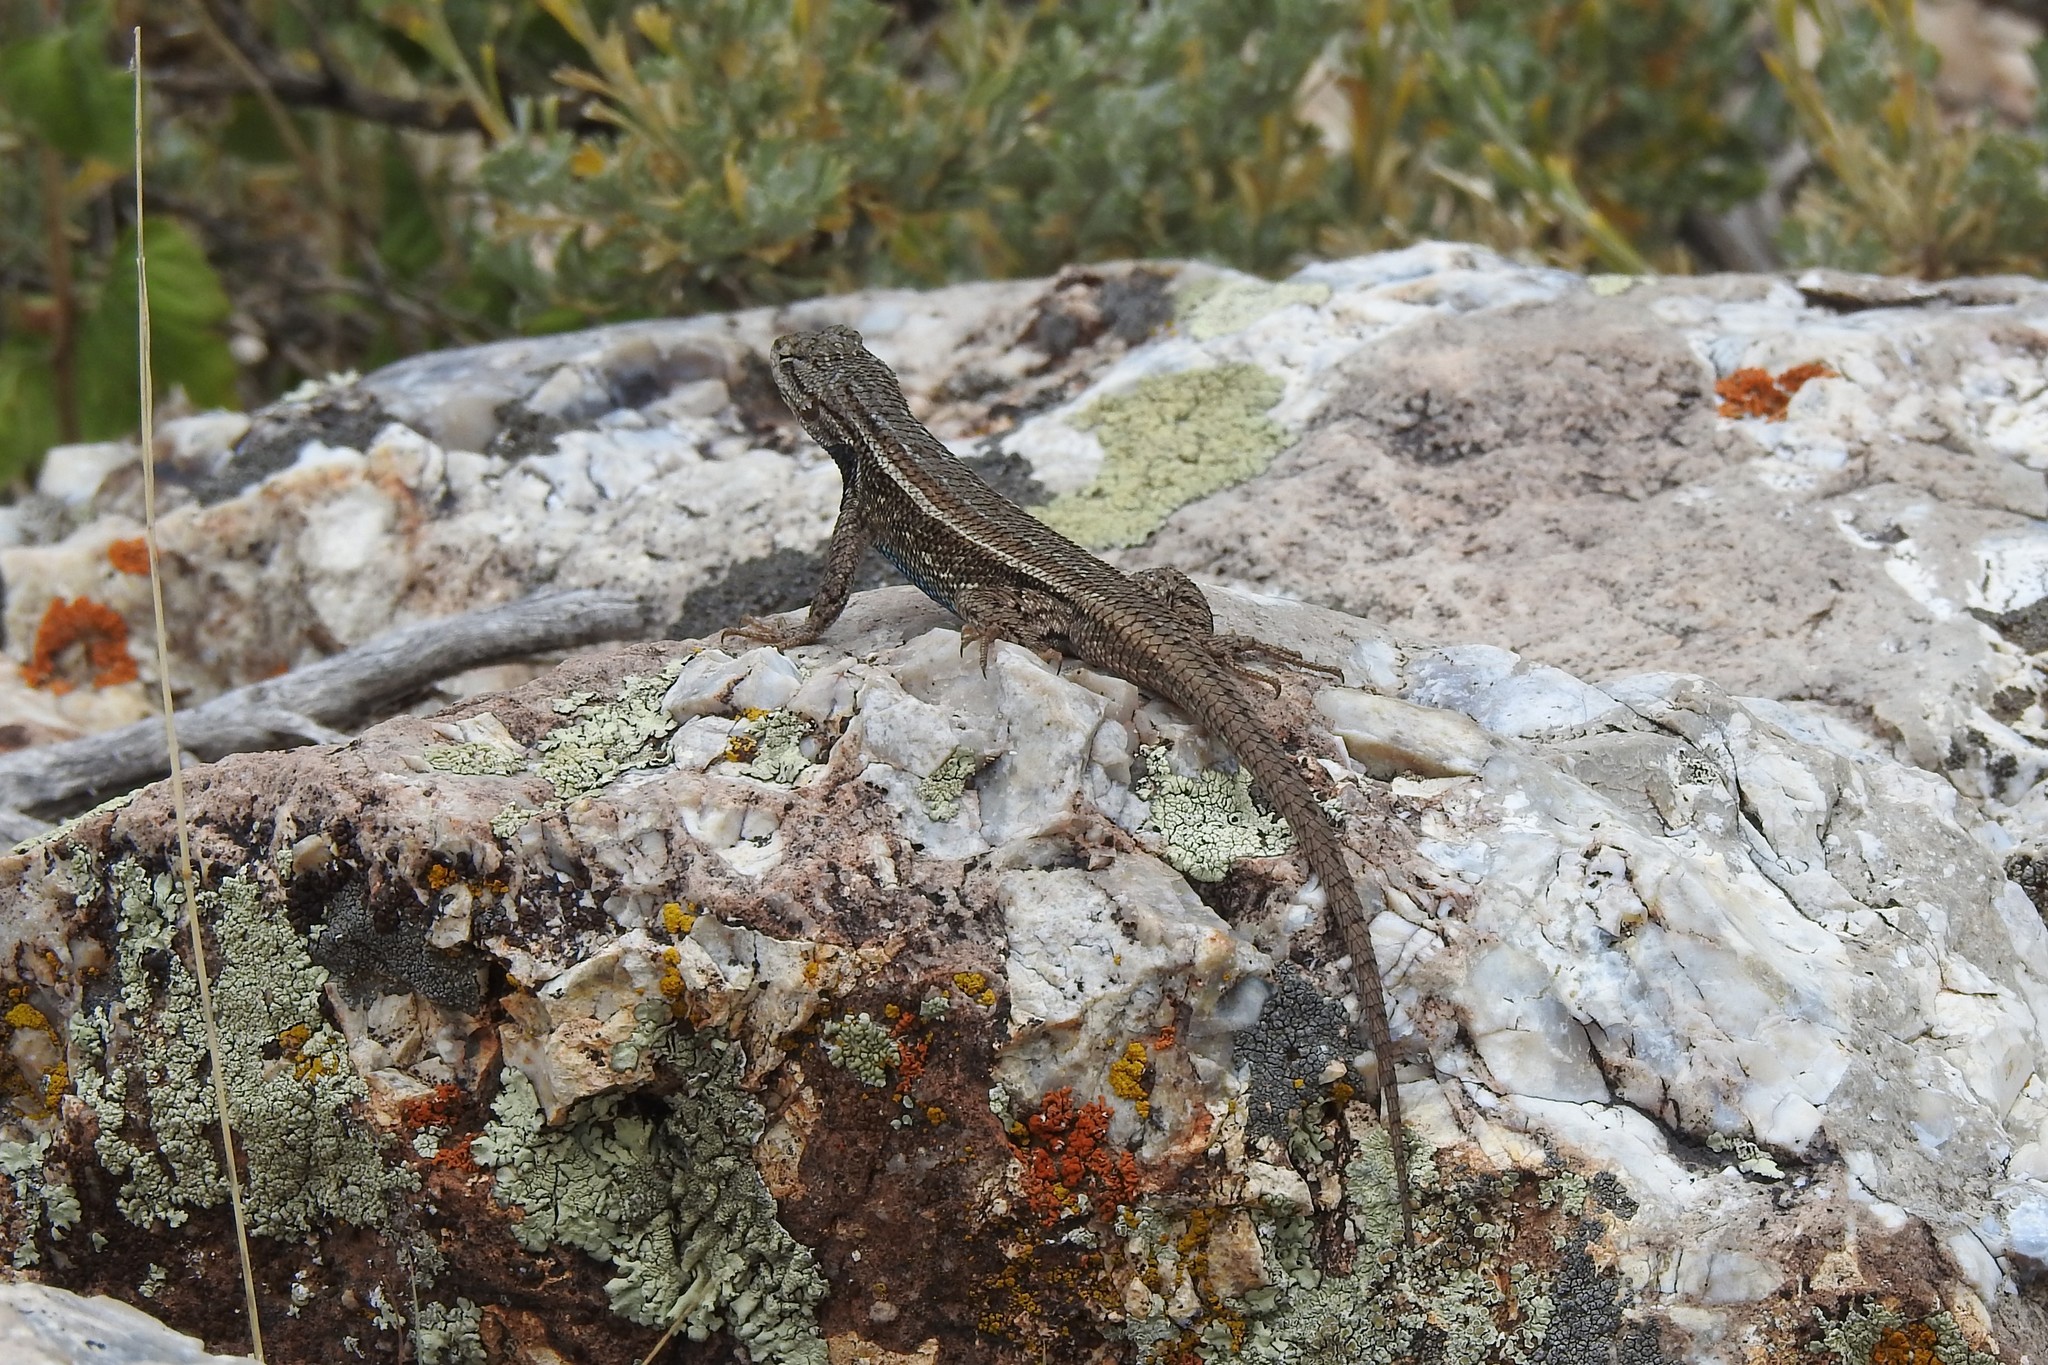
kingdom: Animalia
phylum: Chordata
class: Squamata
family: Phrynosomatidae
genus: Sceloporus
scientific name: Sceloporus tristichus
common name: Plateau fence lizard
